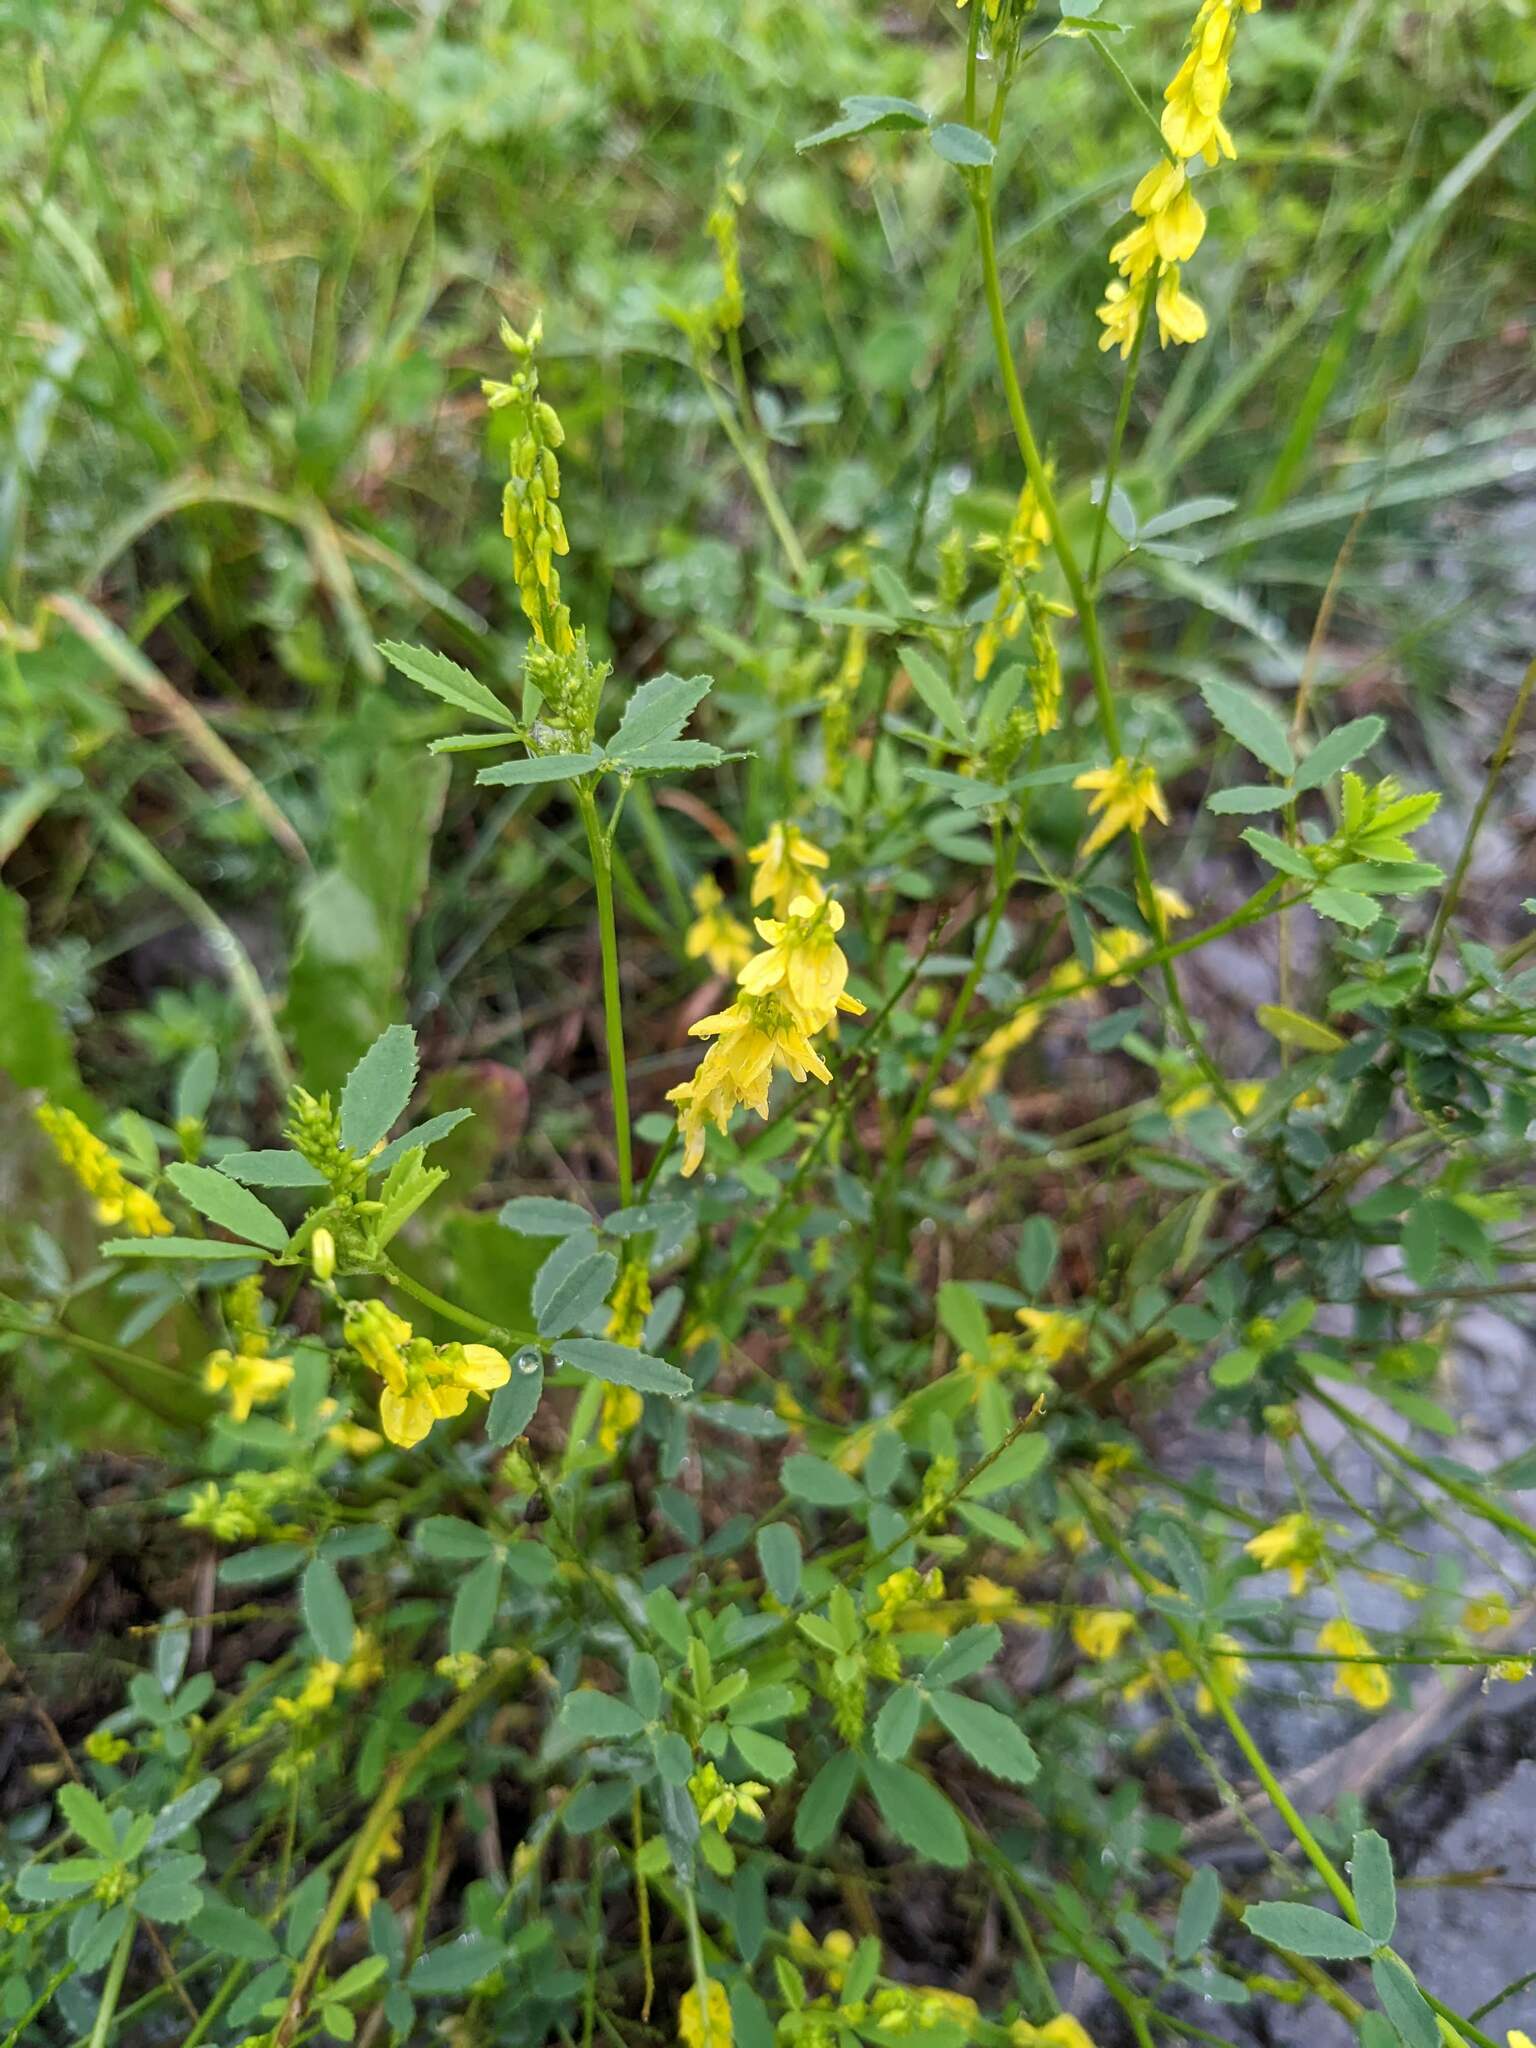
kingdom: Plantae
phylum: Tracheophyta
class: Magnoliopsida
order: Fabales
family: Fabaceae
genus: Melilotus
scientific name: Melilotus officinalis
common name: Sweetclover
